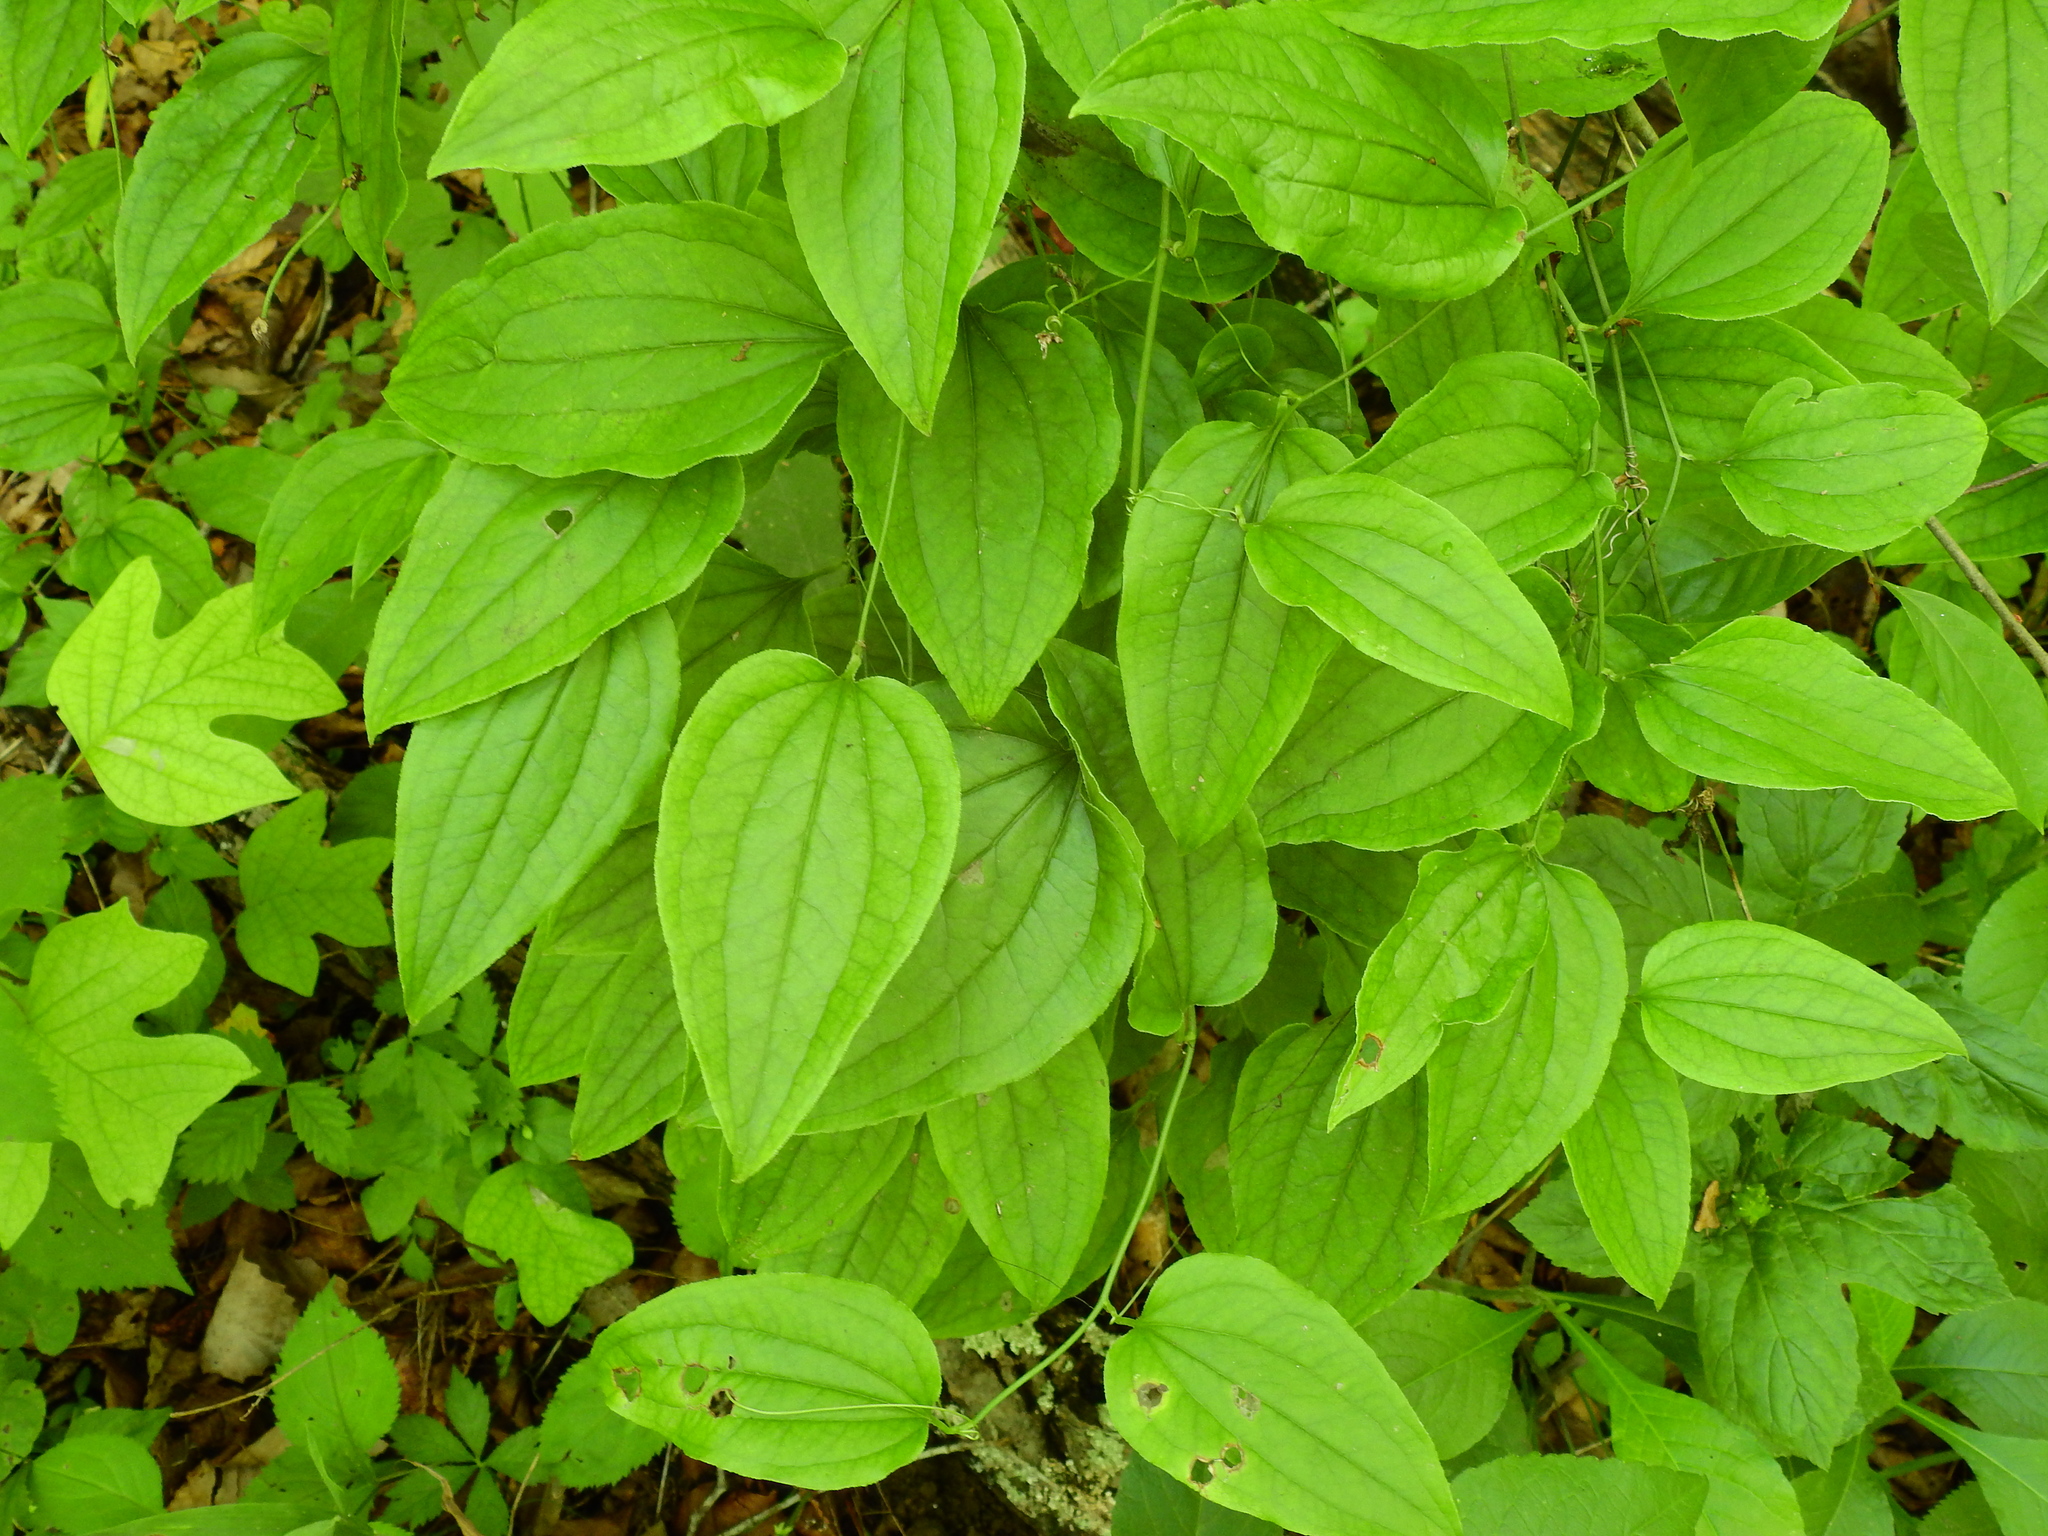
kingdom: Plantae
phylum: Tracheophyta
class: Liliopsida
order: Liliales
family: Smilacaceae
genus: Smilax
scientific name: Smilax tamnoides
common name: Hellfetter
